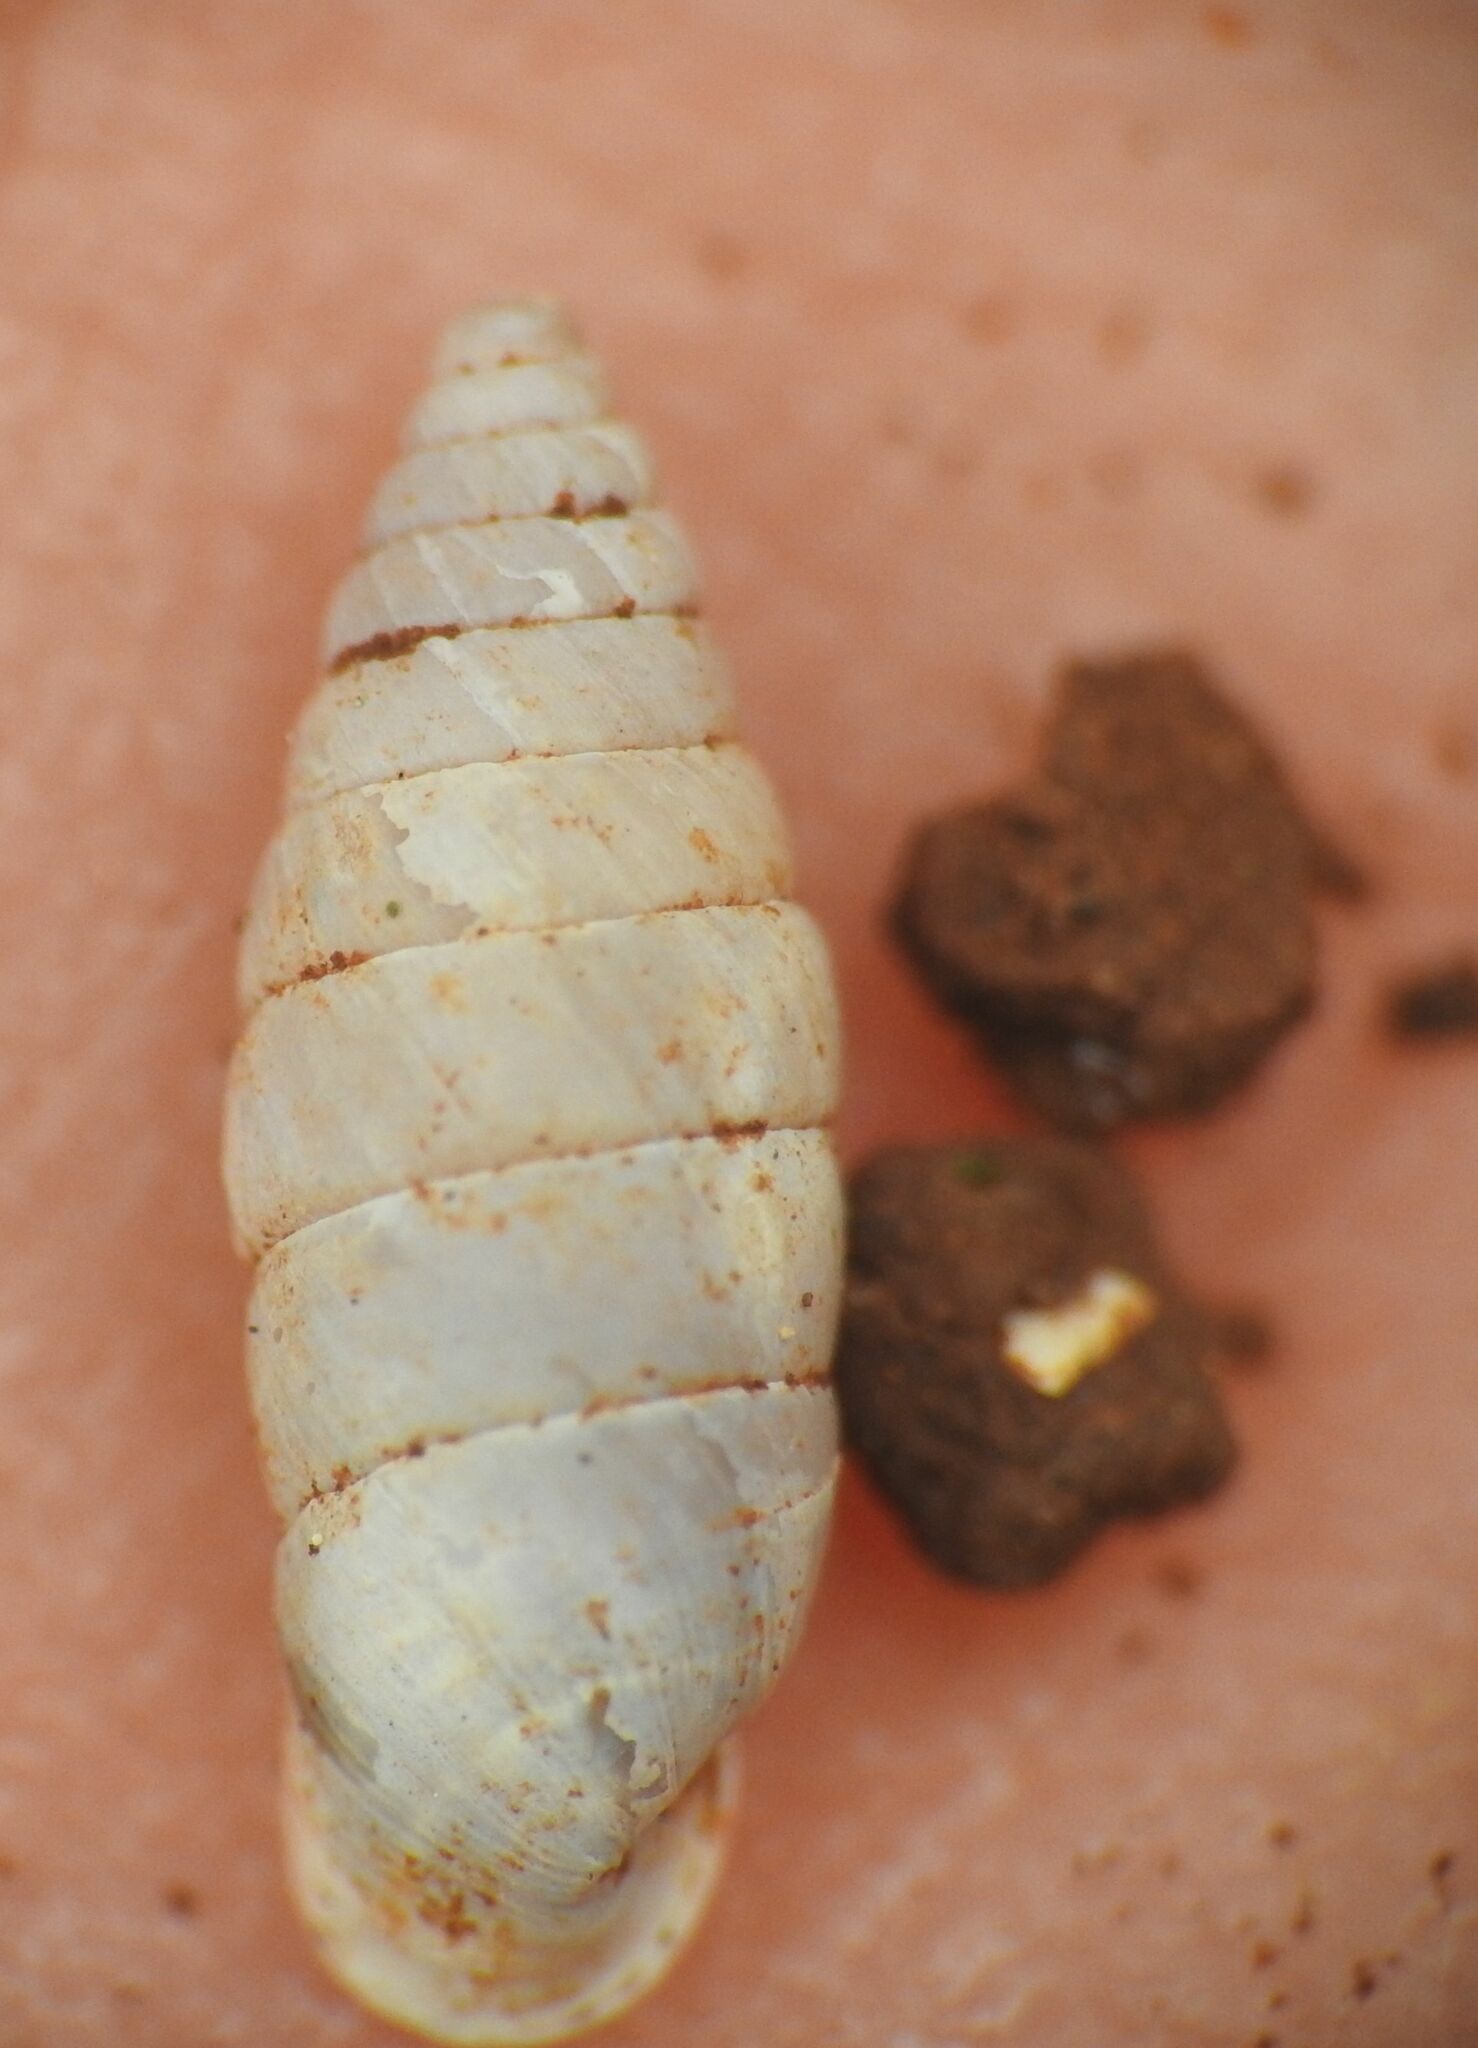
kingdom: Animalia
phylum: Mollusca
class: Gastropoda
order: Stylommatophora
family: Chondrinidae
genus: Granaria
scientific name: Granaria variabilis
